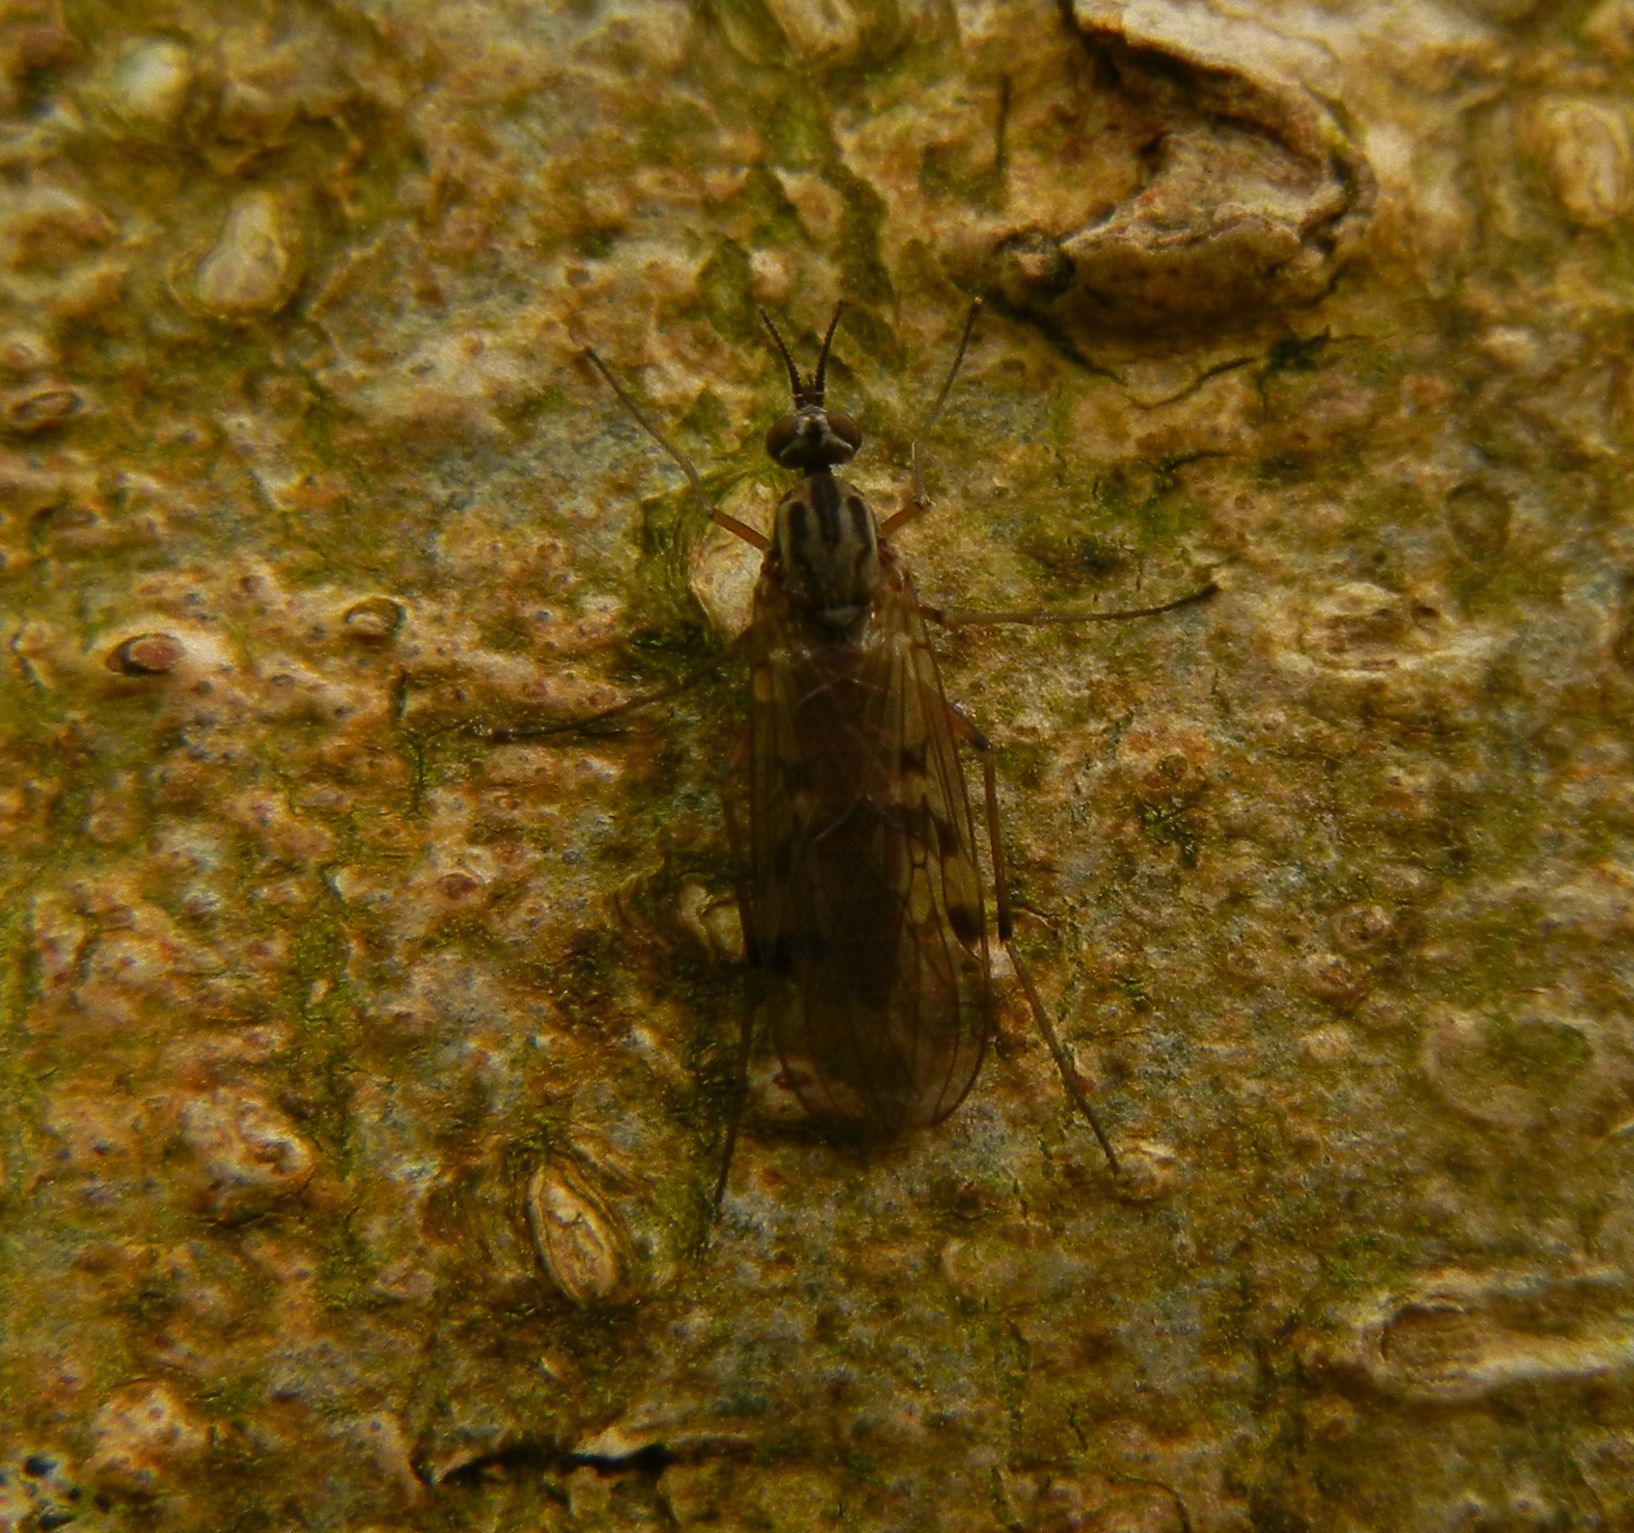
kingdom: Animalia
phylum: Arthropoda
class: Insecta
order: Diptera
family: Anisopodidae
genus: Sylvicola
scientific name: Sylvicola punctatus
